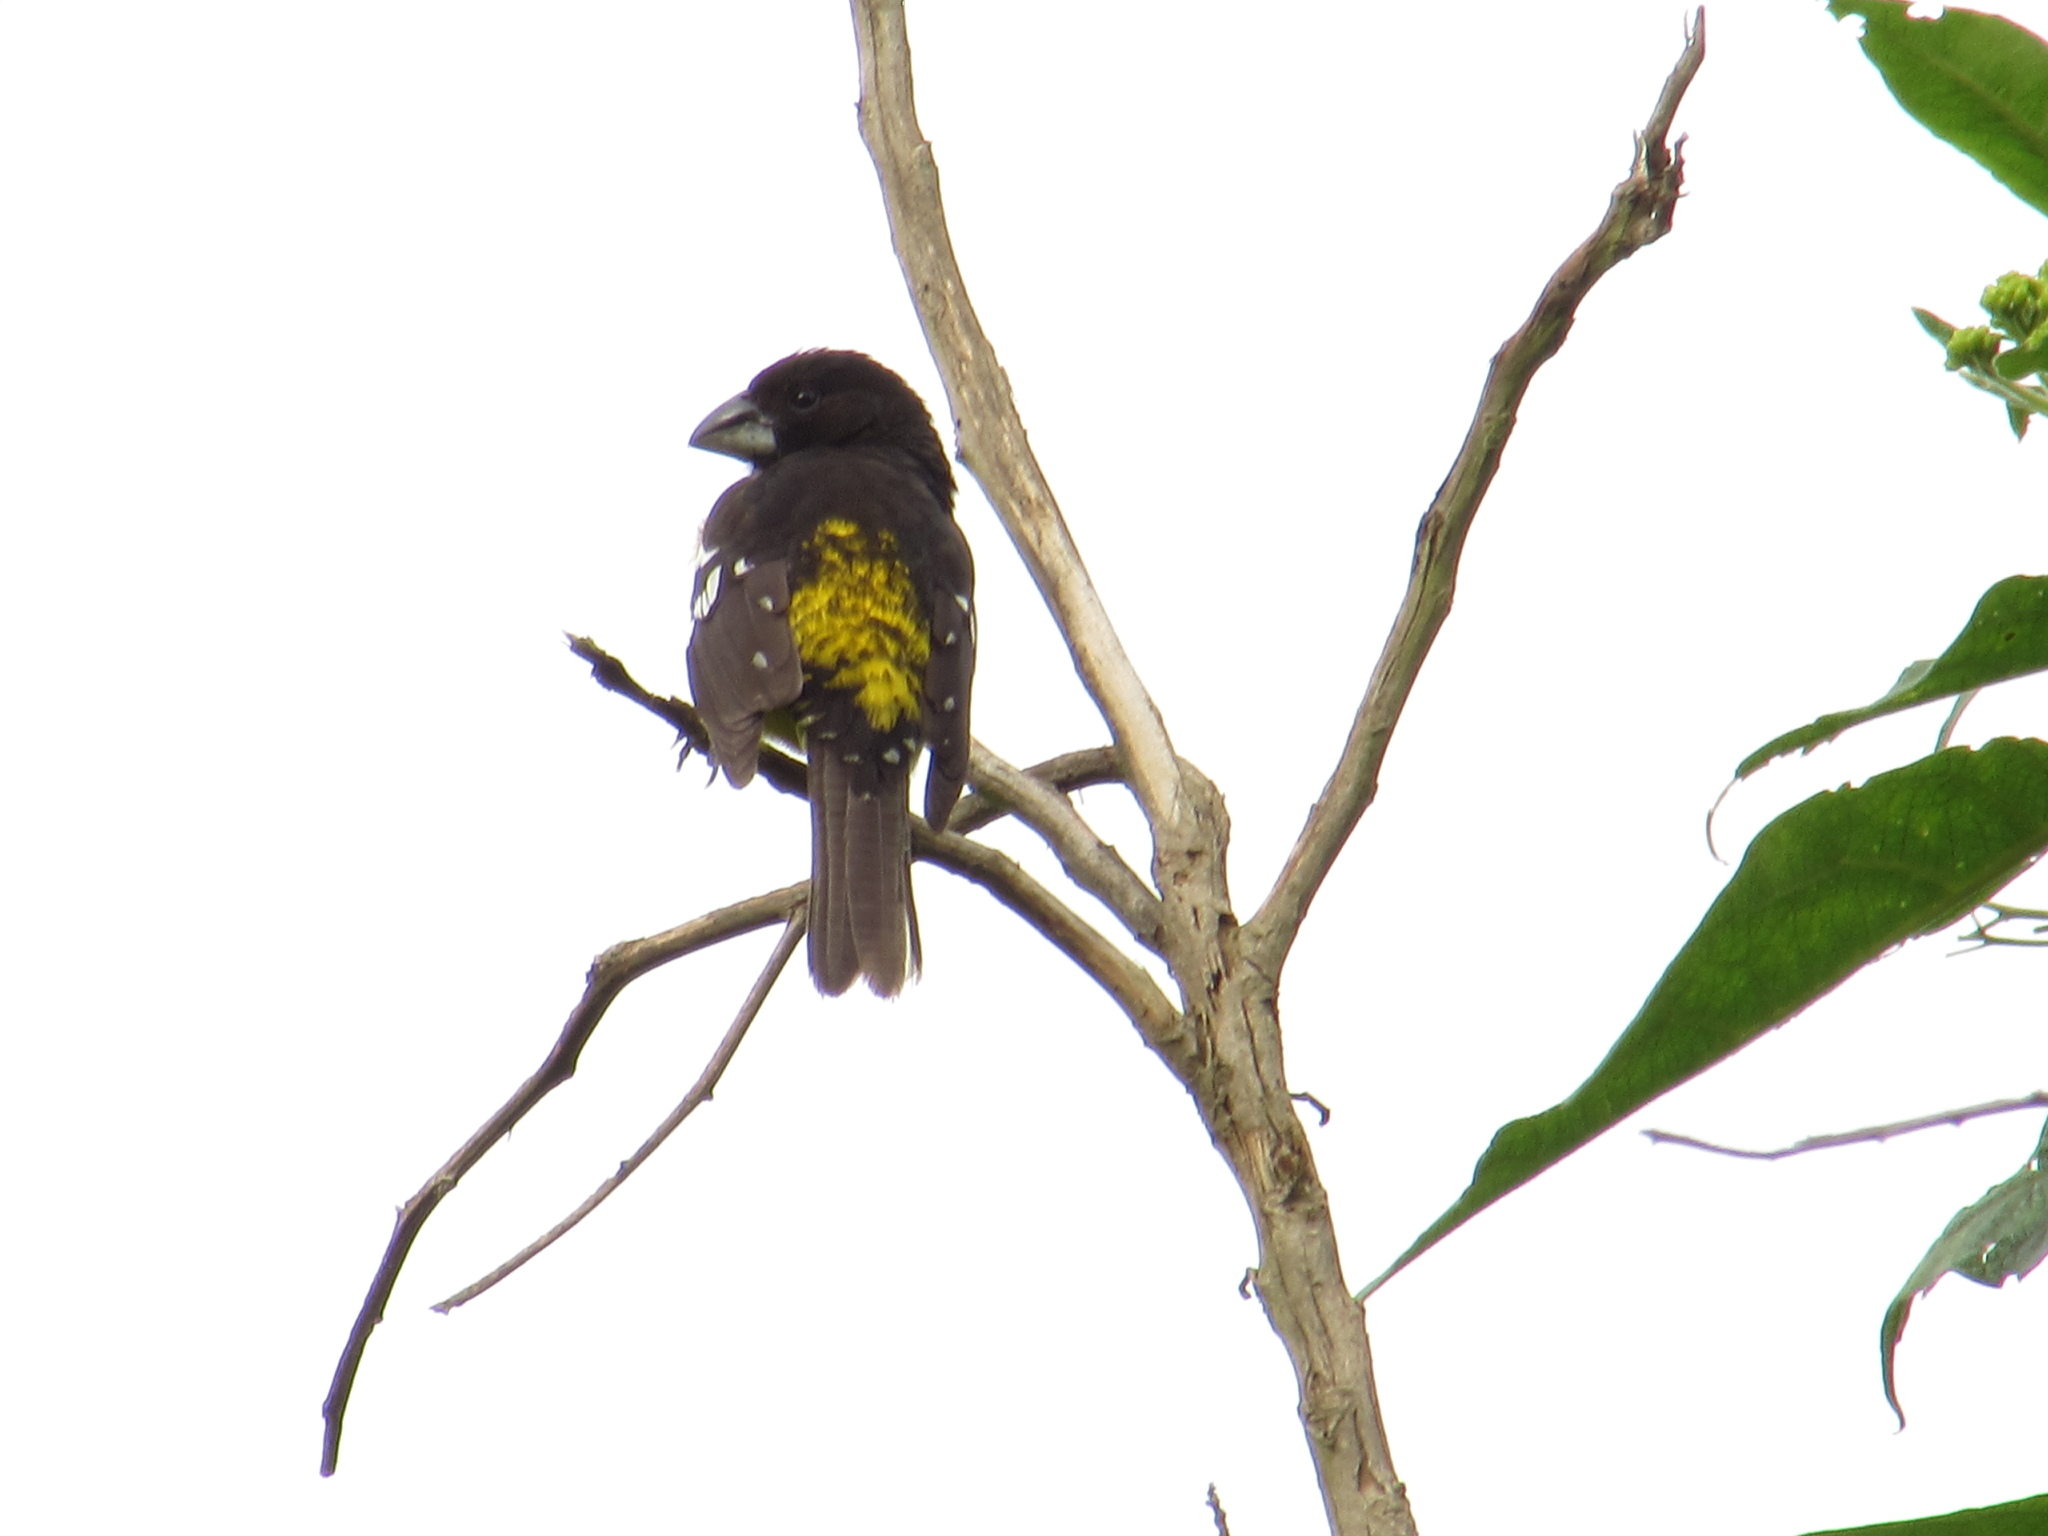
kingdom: Animalia
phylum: Chordata
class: Aves
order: Passeriformes
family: Cardinalidae
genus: Pheucticus
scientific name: Pheucticus aureoventris
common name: Black-backed grosbeak
